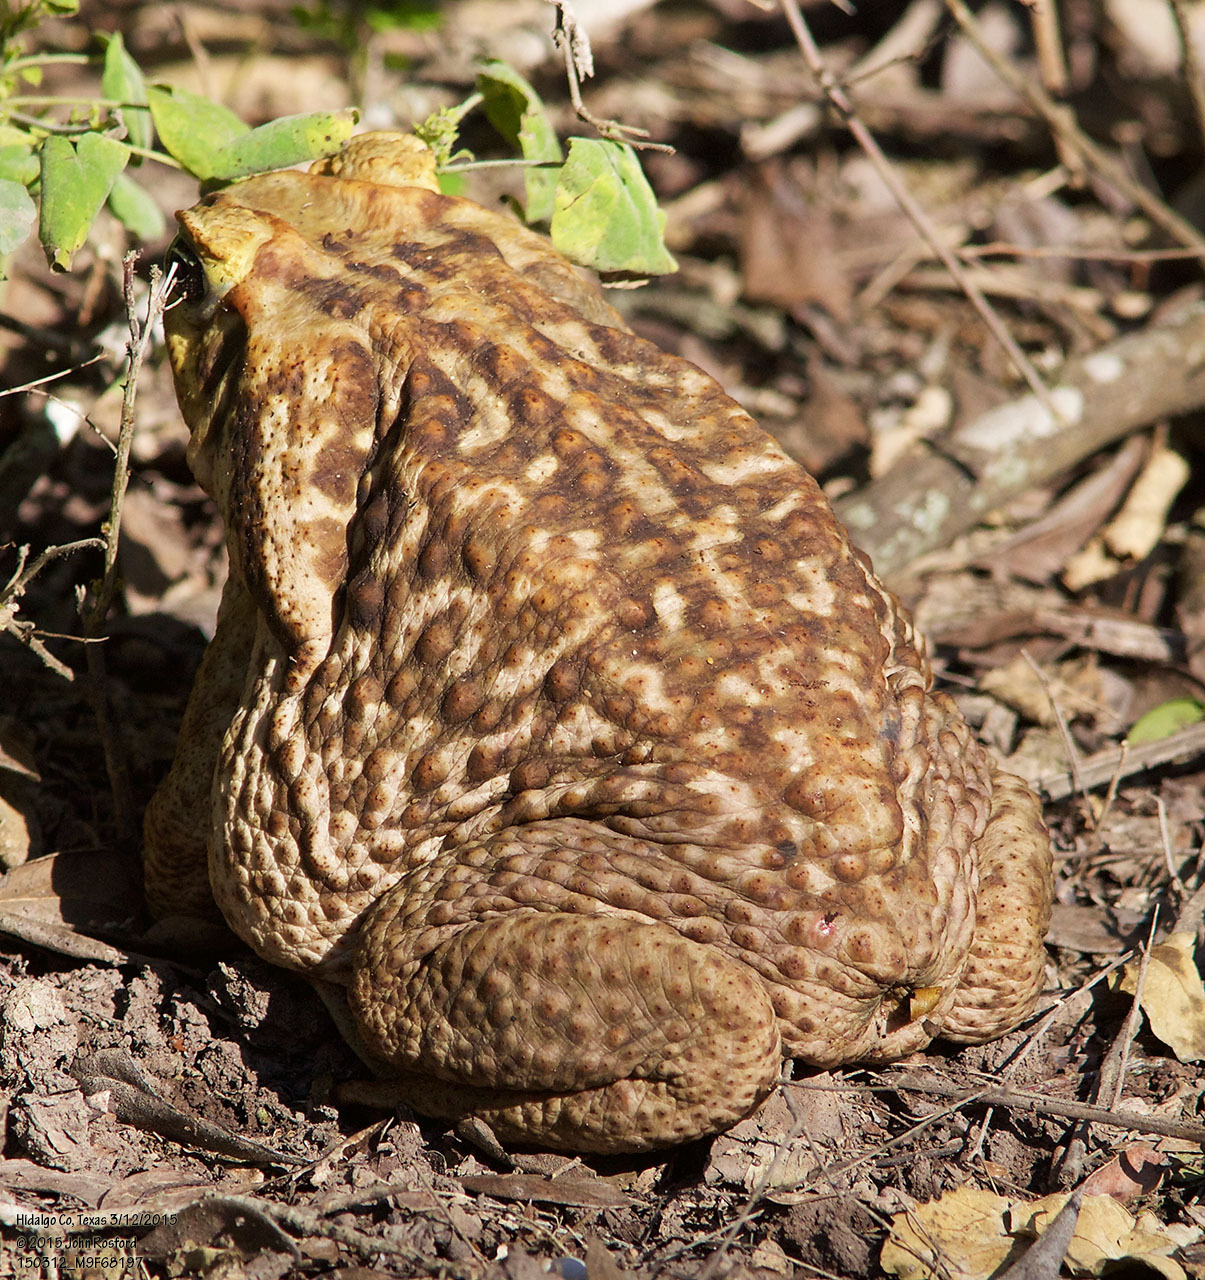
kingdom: Animalia
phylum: Chordata
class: Amphibia
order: Anura
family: Bufonidae
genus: Rhinella
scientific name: Rhinella horribilis
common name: Mesoamerican cane toad
